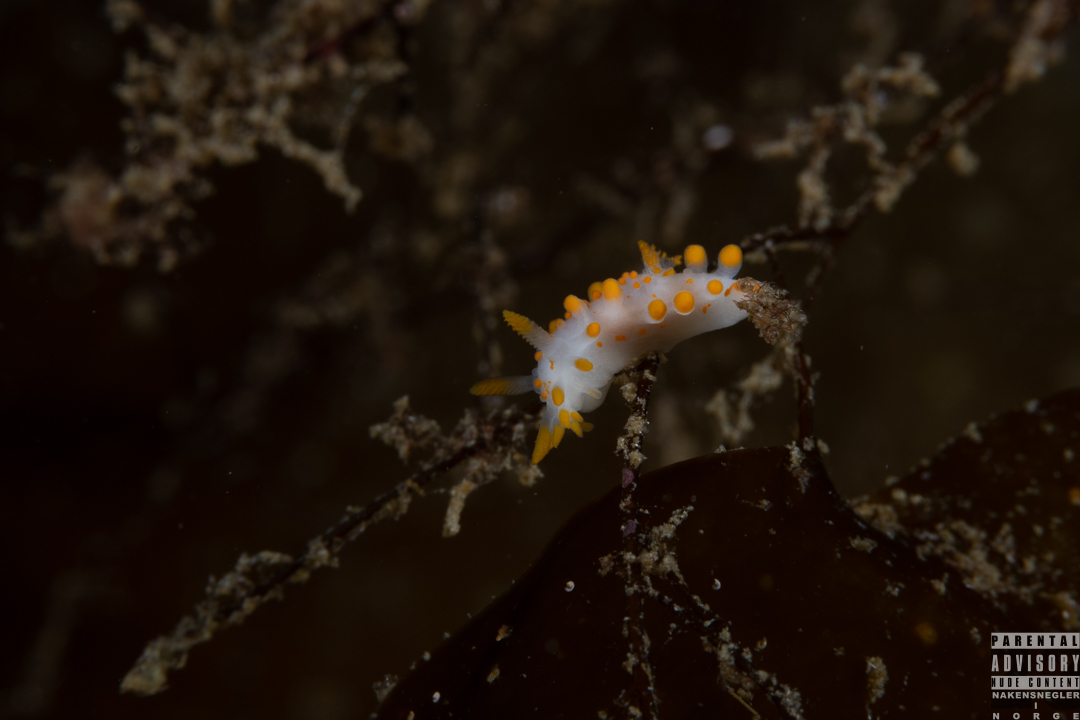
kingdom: Animalia
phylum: Mollusca
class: Gastropoda
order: Nudibranchia
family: Polyceridae
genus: Limacia
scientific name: Limacia clavigera
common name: Orange-clubbed sea slug
